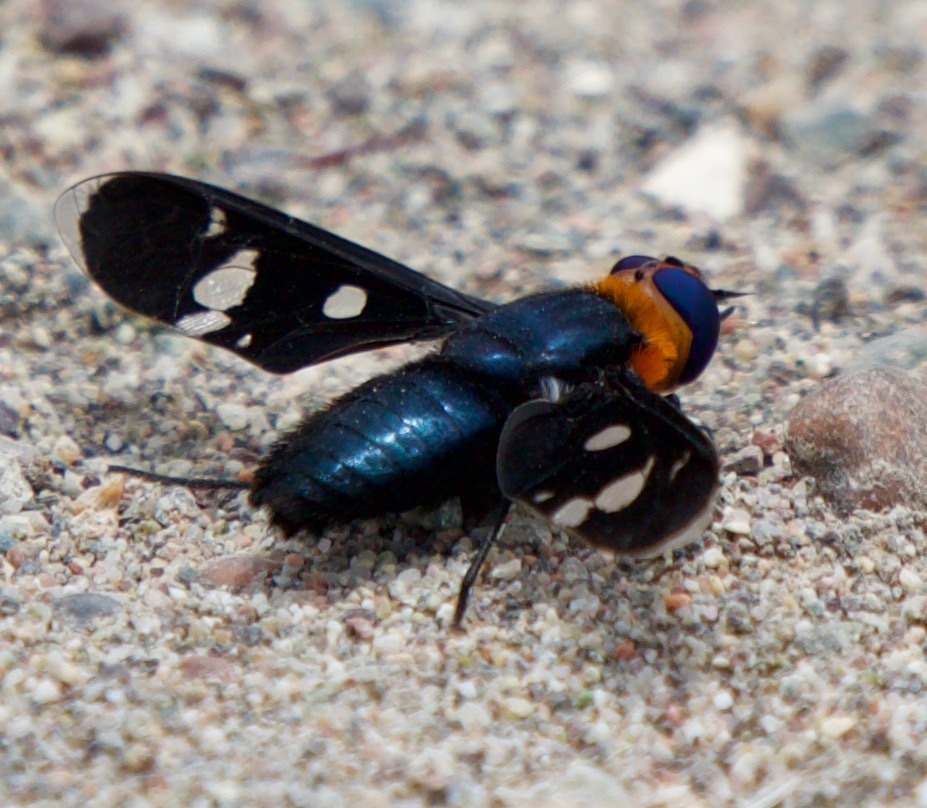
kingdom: Animalia
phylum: Arthropoda
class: Insecta
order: Diptera
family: Bombyliidae
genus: Hyperalonia
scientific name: Hyperalonia chilensis
